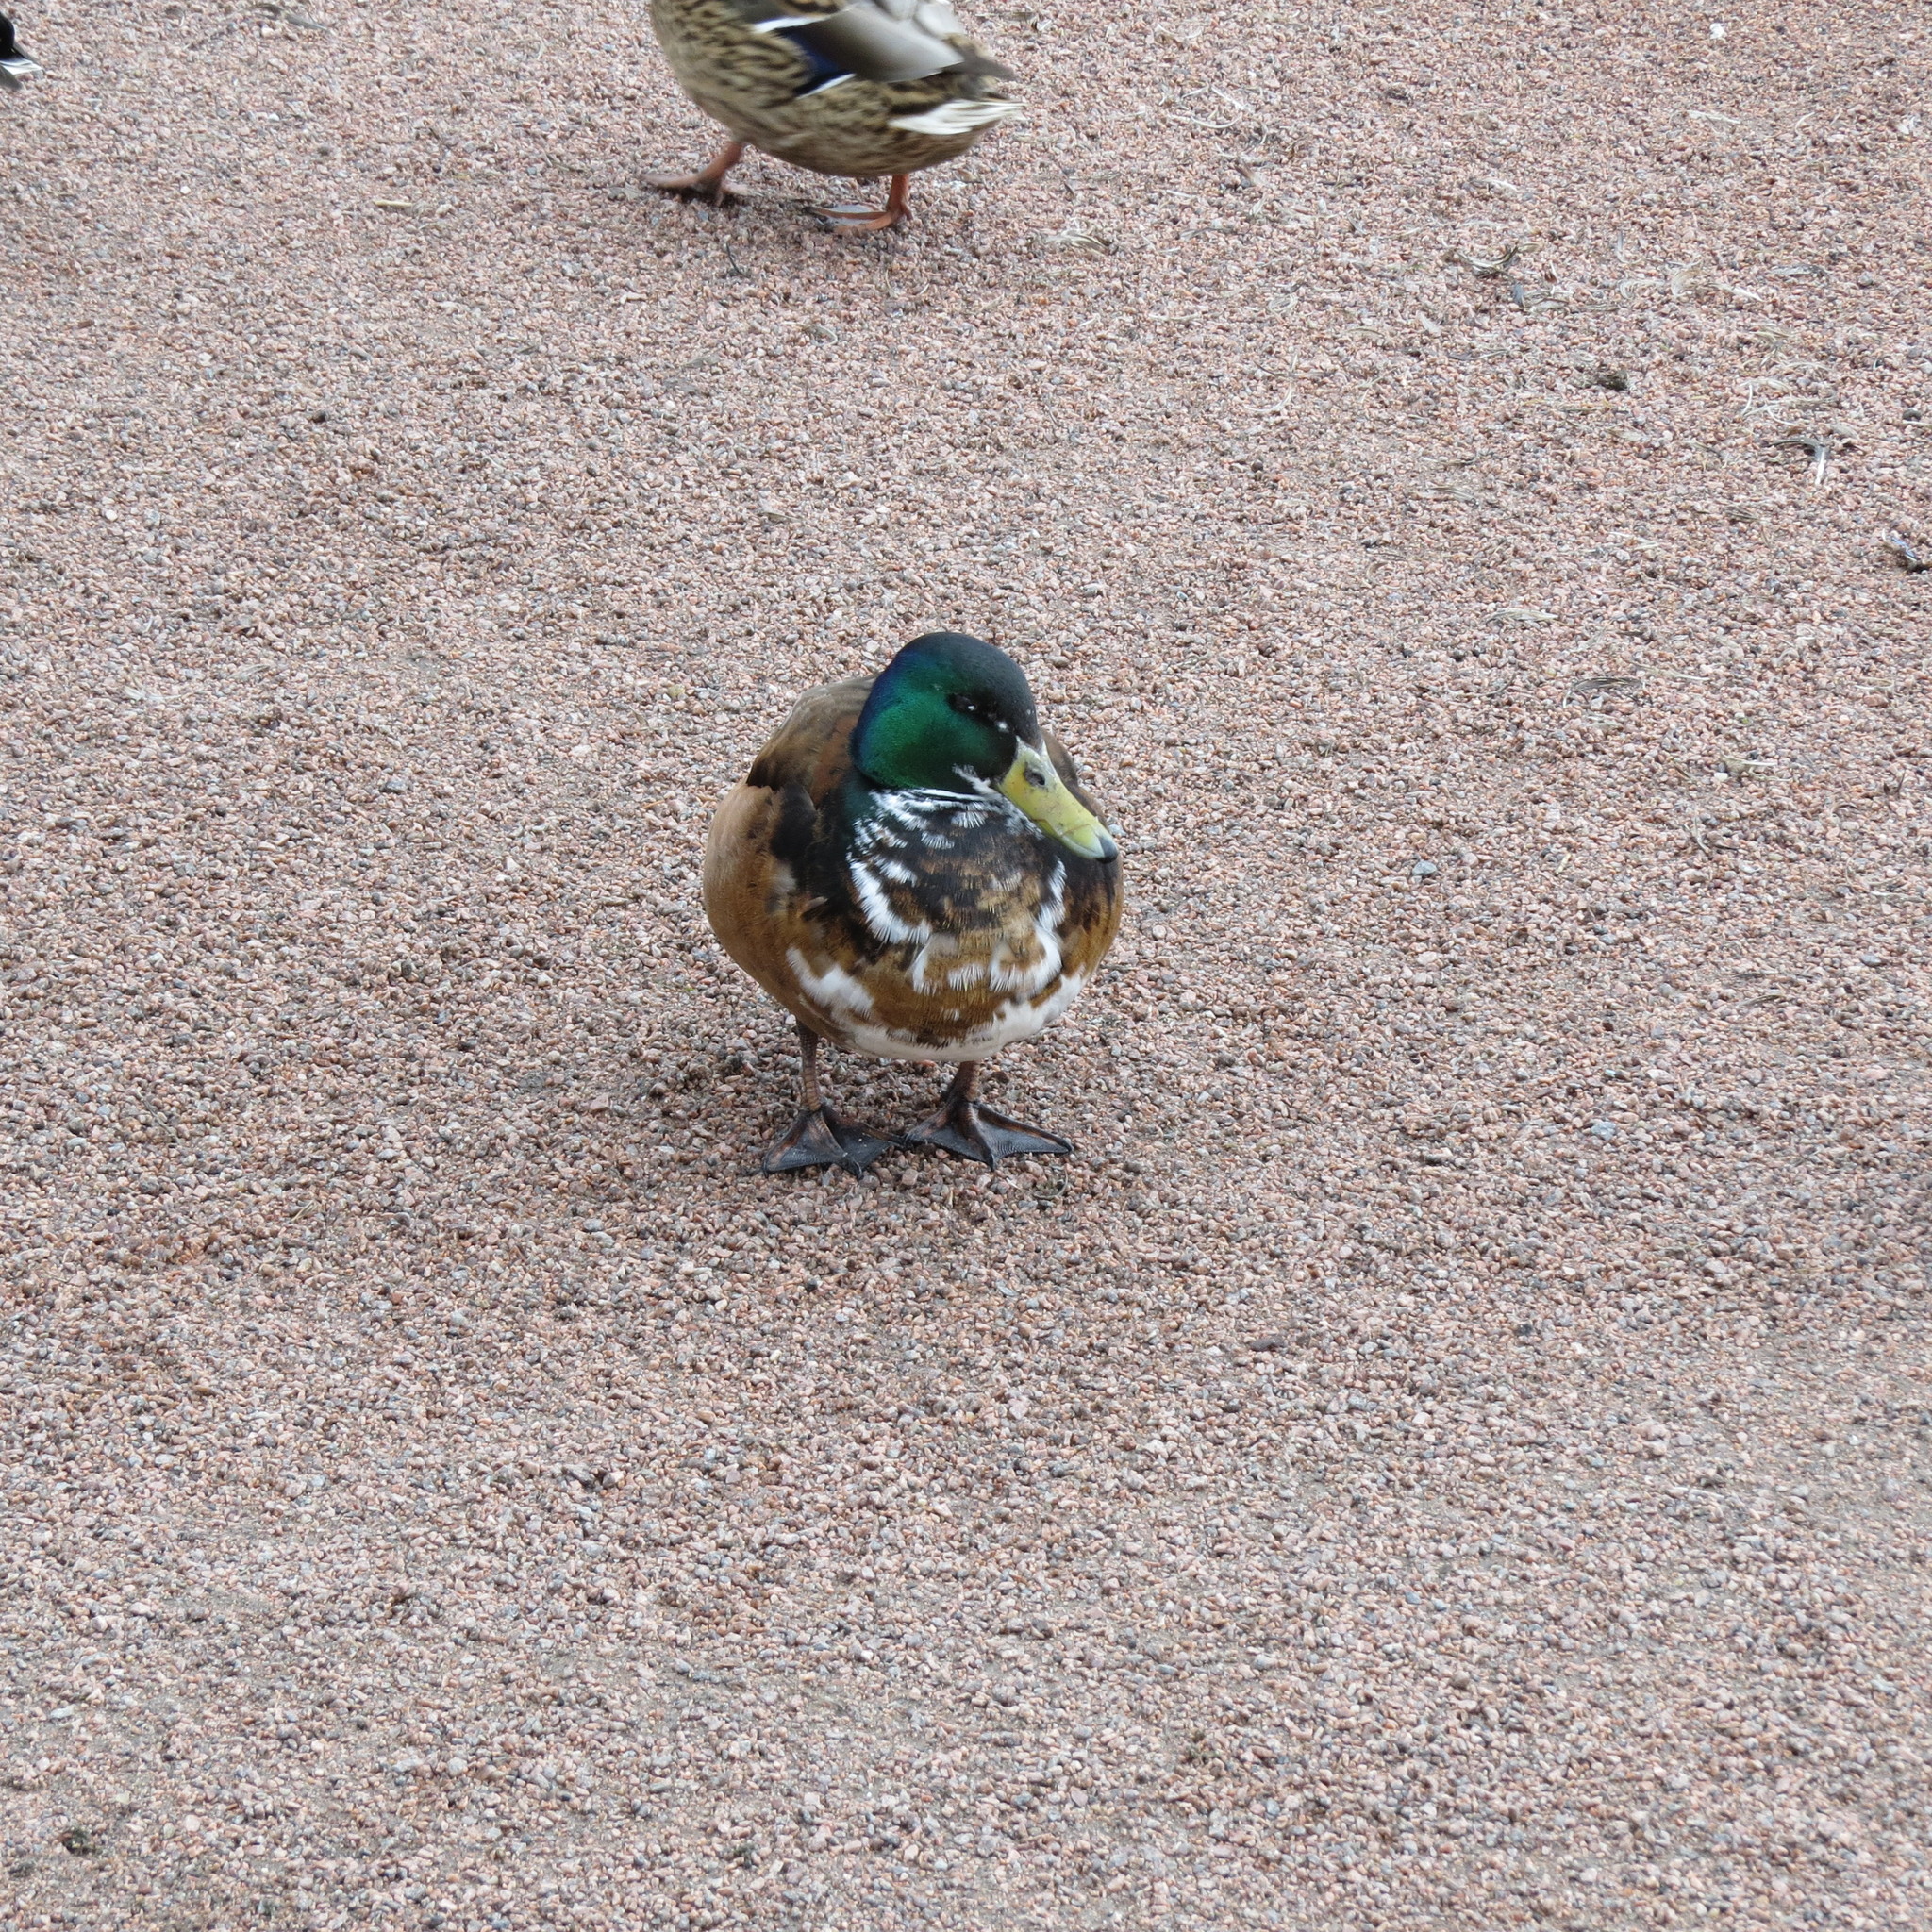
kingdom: Animalia
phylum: Chordata
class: Aves
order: Anseriformes
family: Anatidae
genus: Anas
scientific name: Anas platyrhynchos
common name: Mallard
